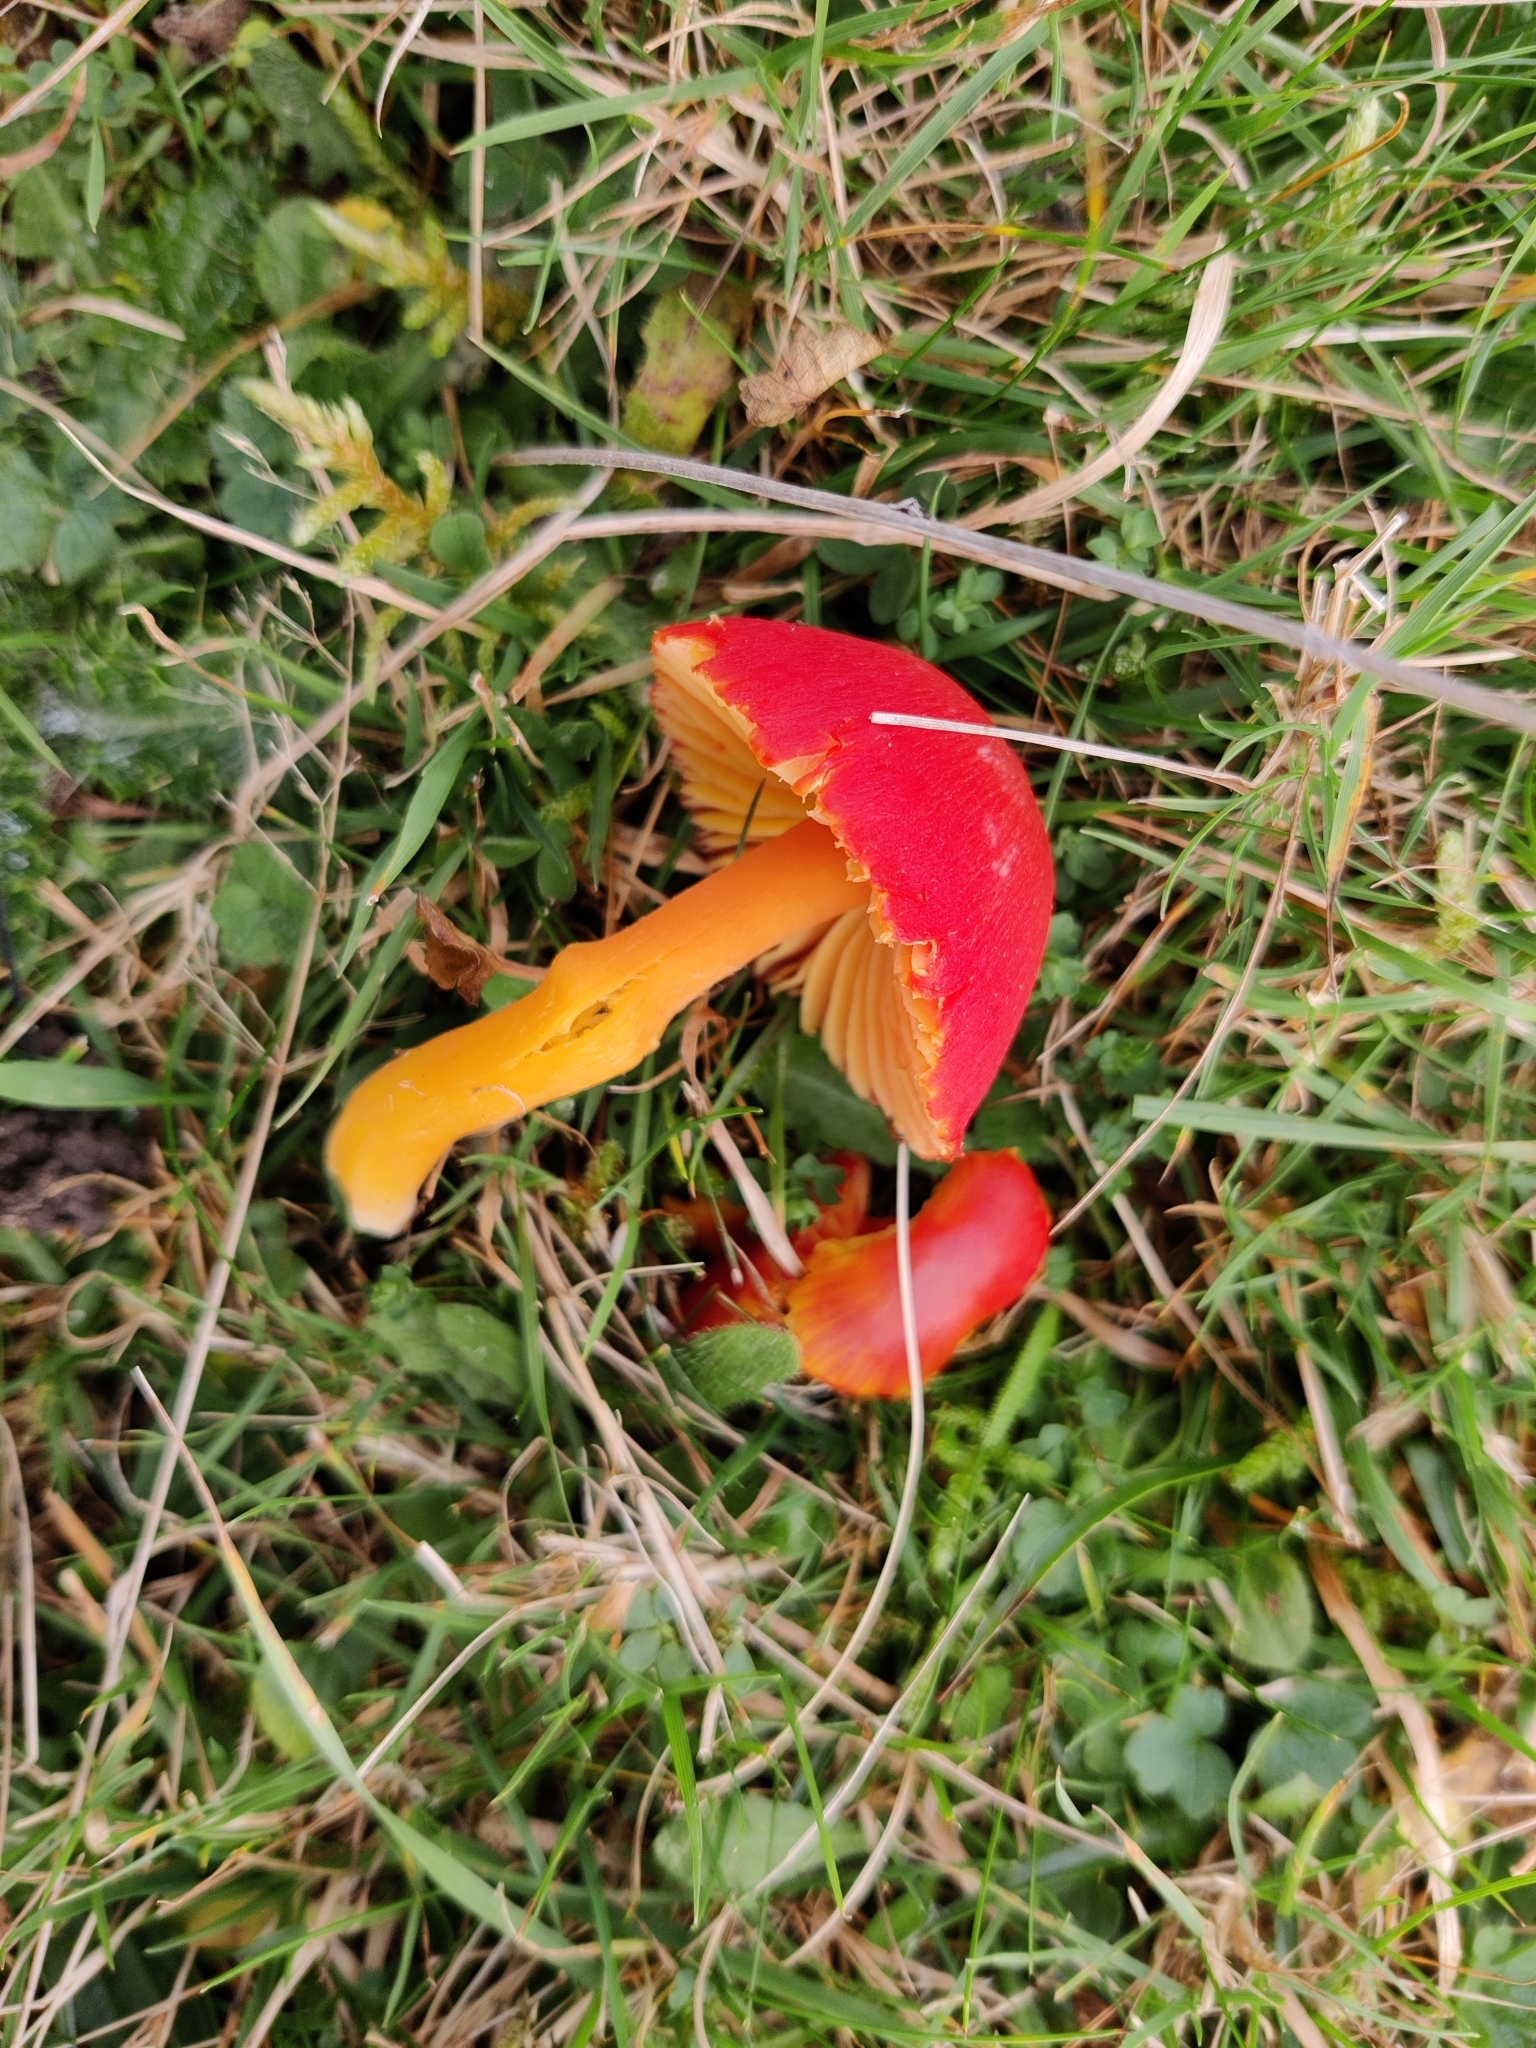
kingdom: Fungi
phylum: Basidiomycota
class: Agaricomycetes
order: Agaricales
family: Hygrophoraceae
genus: Hygrocybe
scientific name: Hygrocybe coccinea
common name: Scarlet hood
